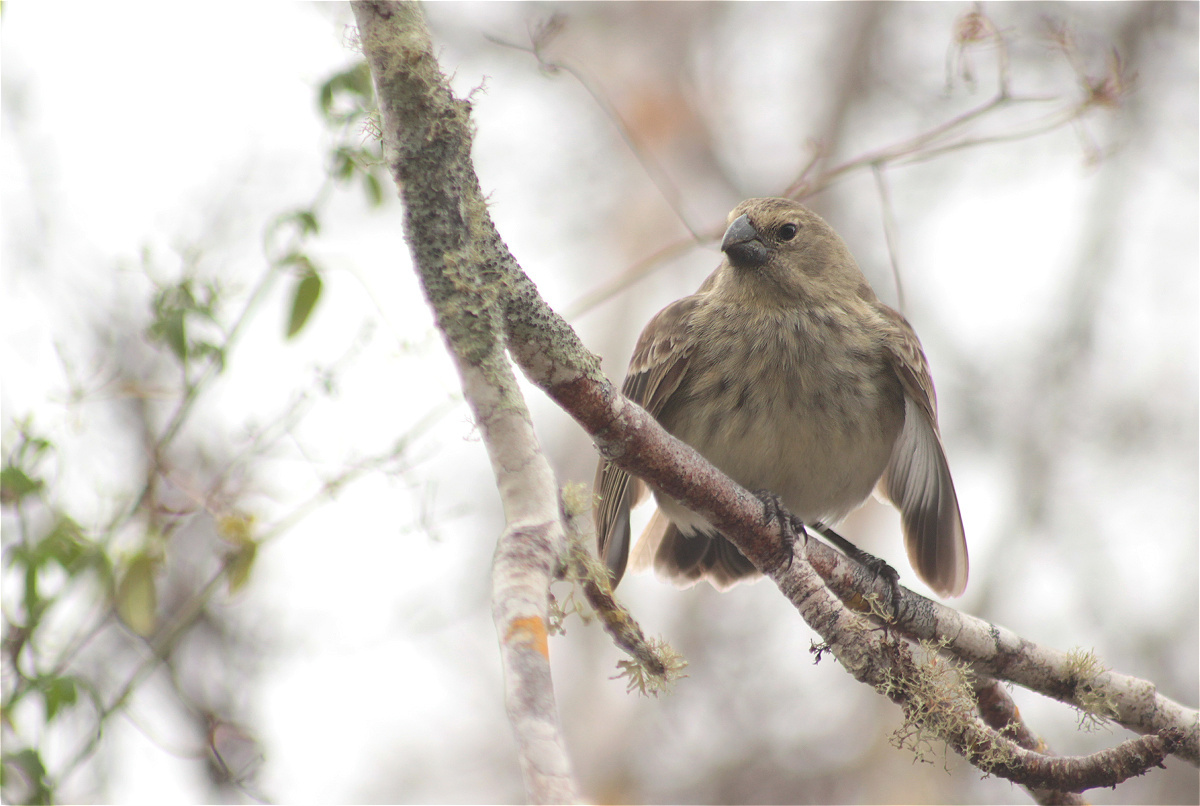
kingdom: Animalia
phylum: Chordata
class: Aves
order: Passeriformes
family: Thraupidae
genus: Platyspiza
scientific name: Platyspiza crassirostris
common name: Vegetarian finch
